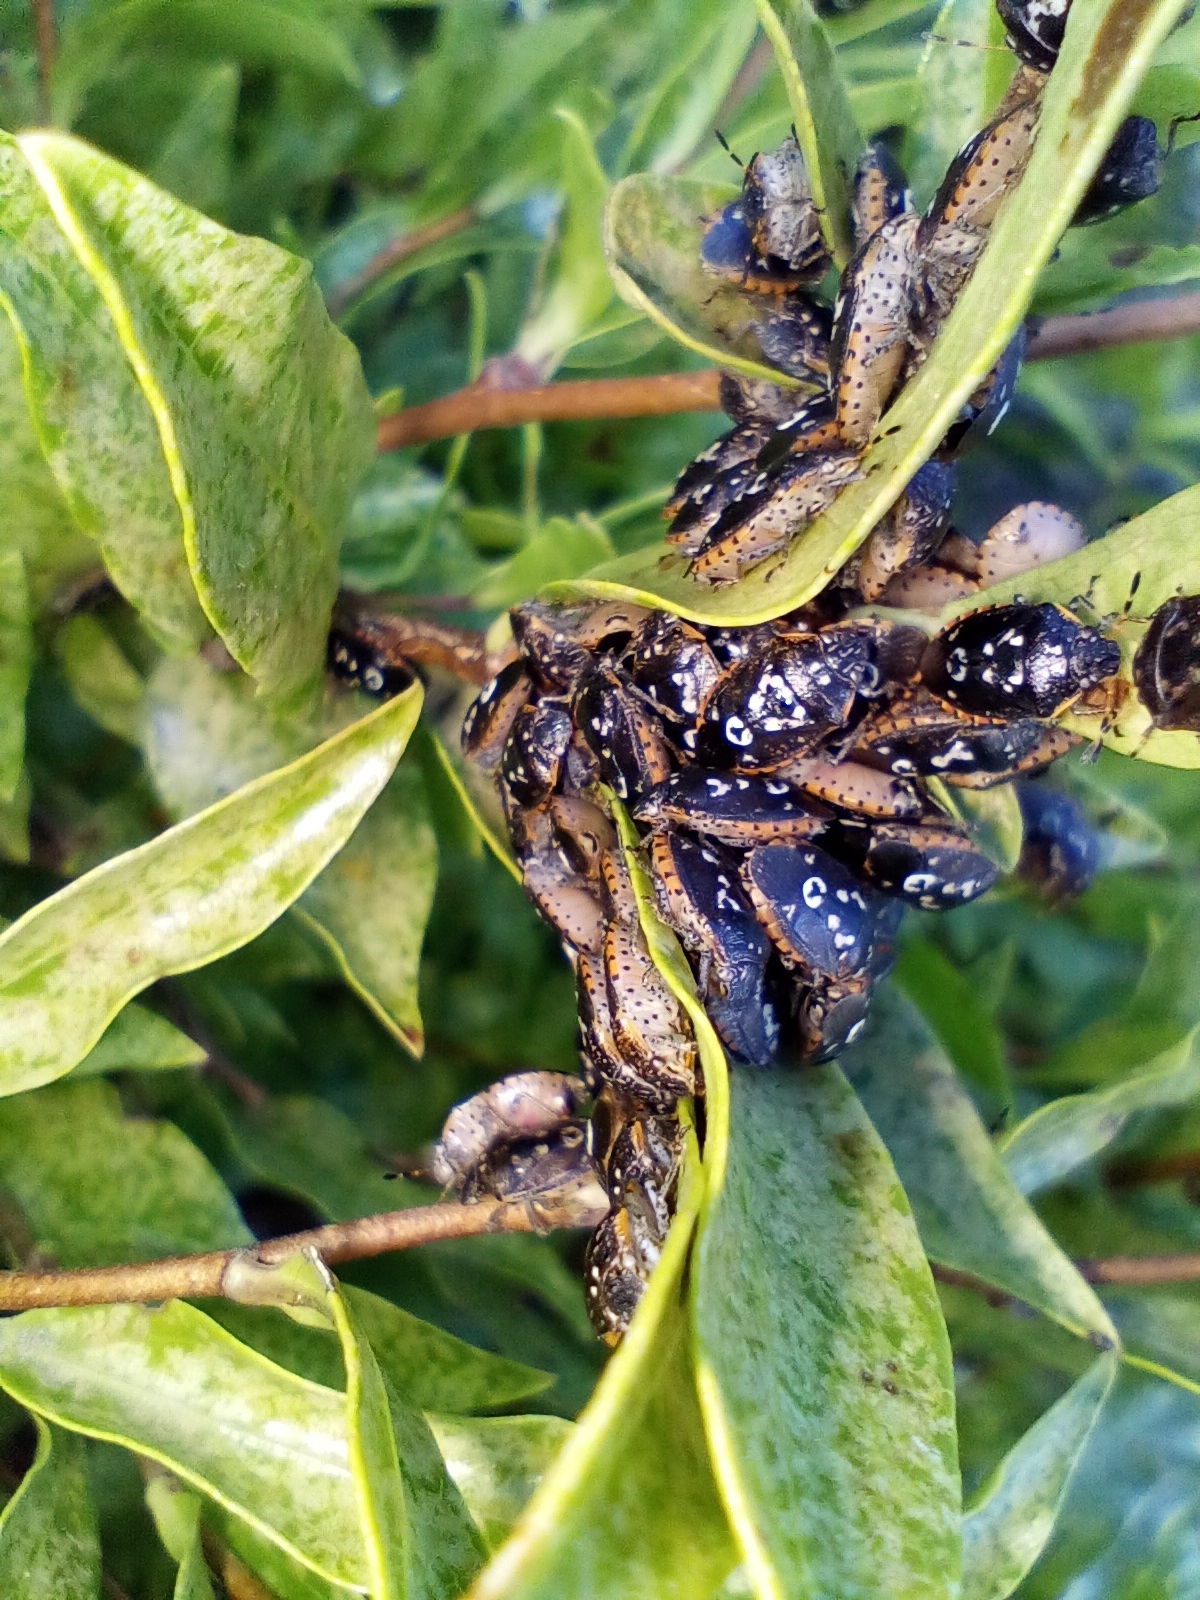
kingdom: Animalia
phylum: Arthropoda
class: Insecta
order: Hemiptera
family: Pentatomidae
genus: Pseudapines
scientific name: Pseudapines
